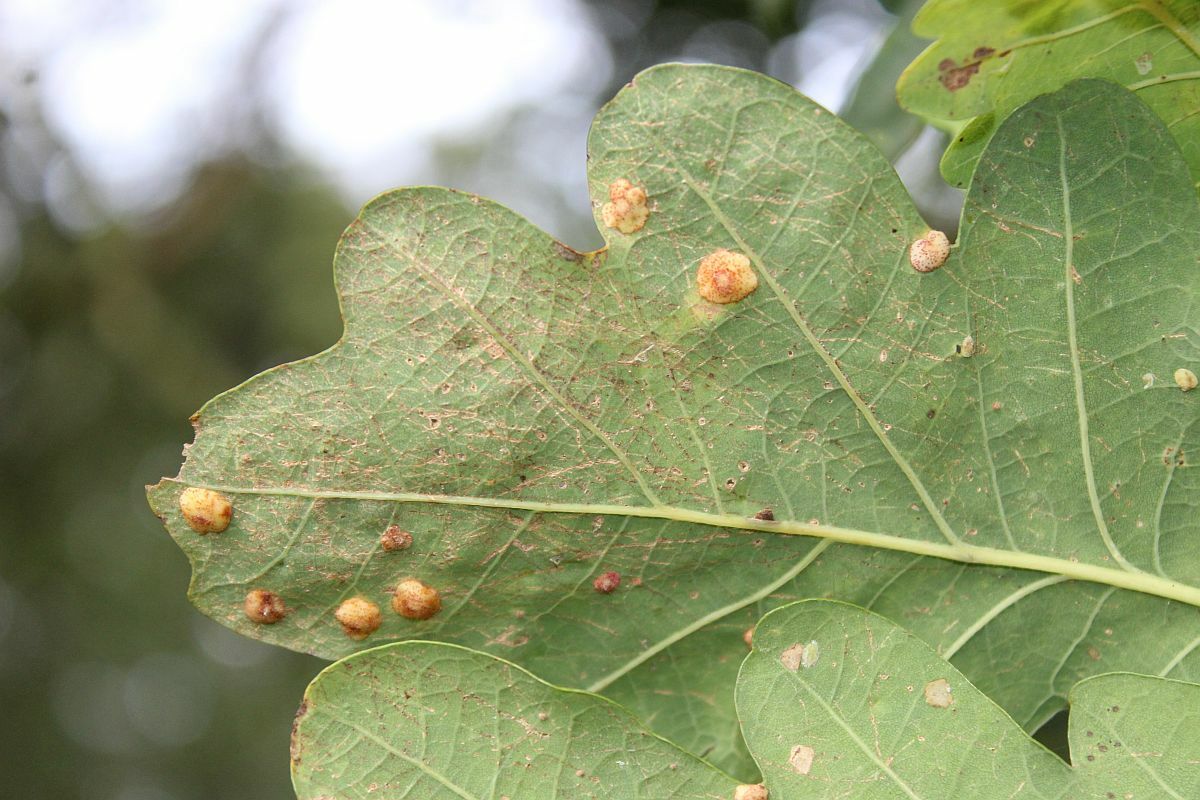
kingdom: Animalia
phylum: Arthropoda
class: Insecta
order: Hymenoptera
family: Cynipidae
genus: Neuroterus
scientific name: Neuroterus quercusbaccarum
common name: Common spangle gall
